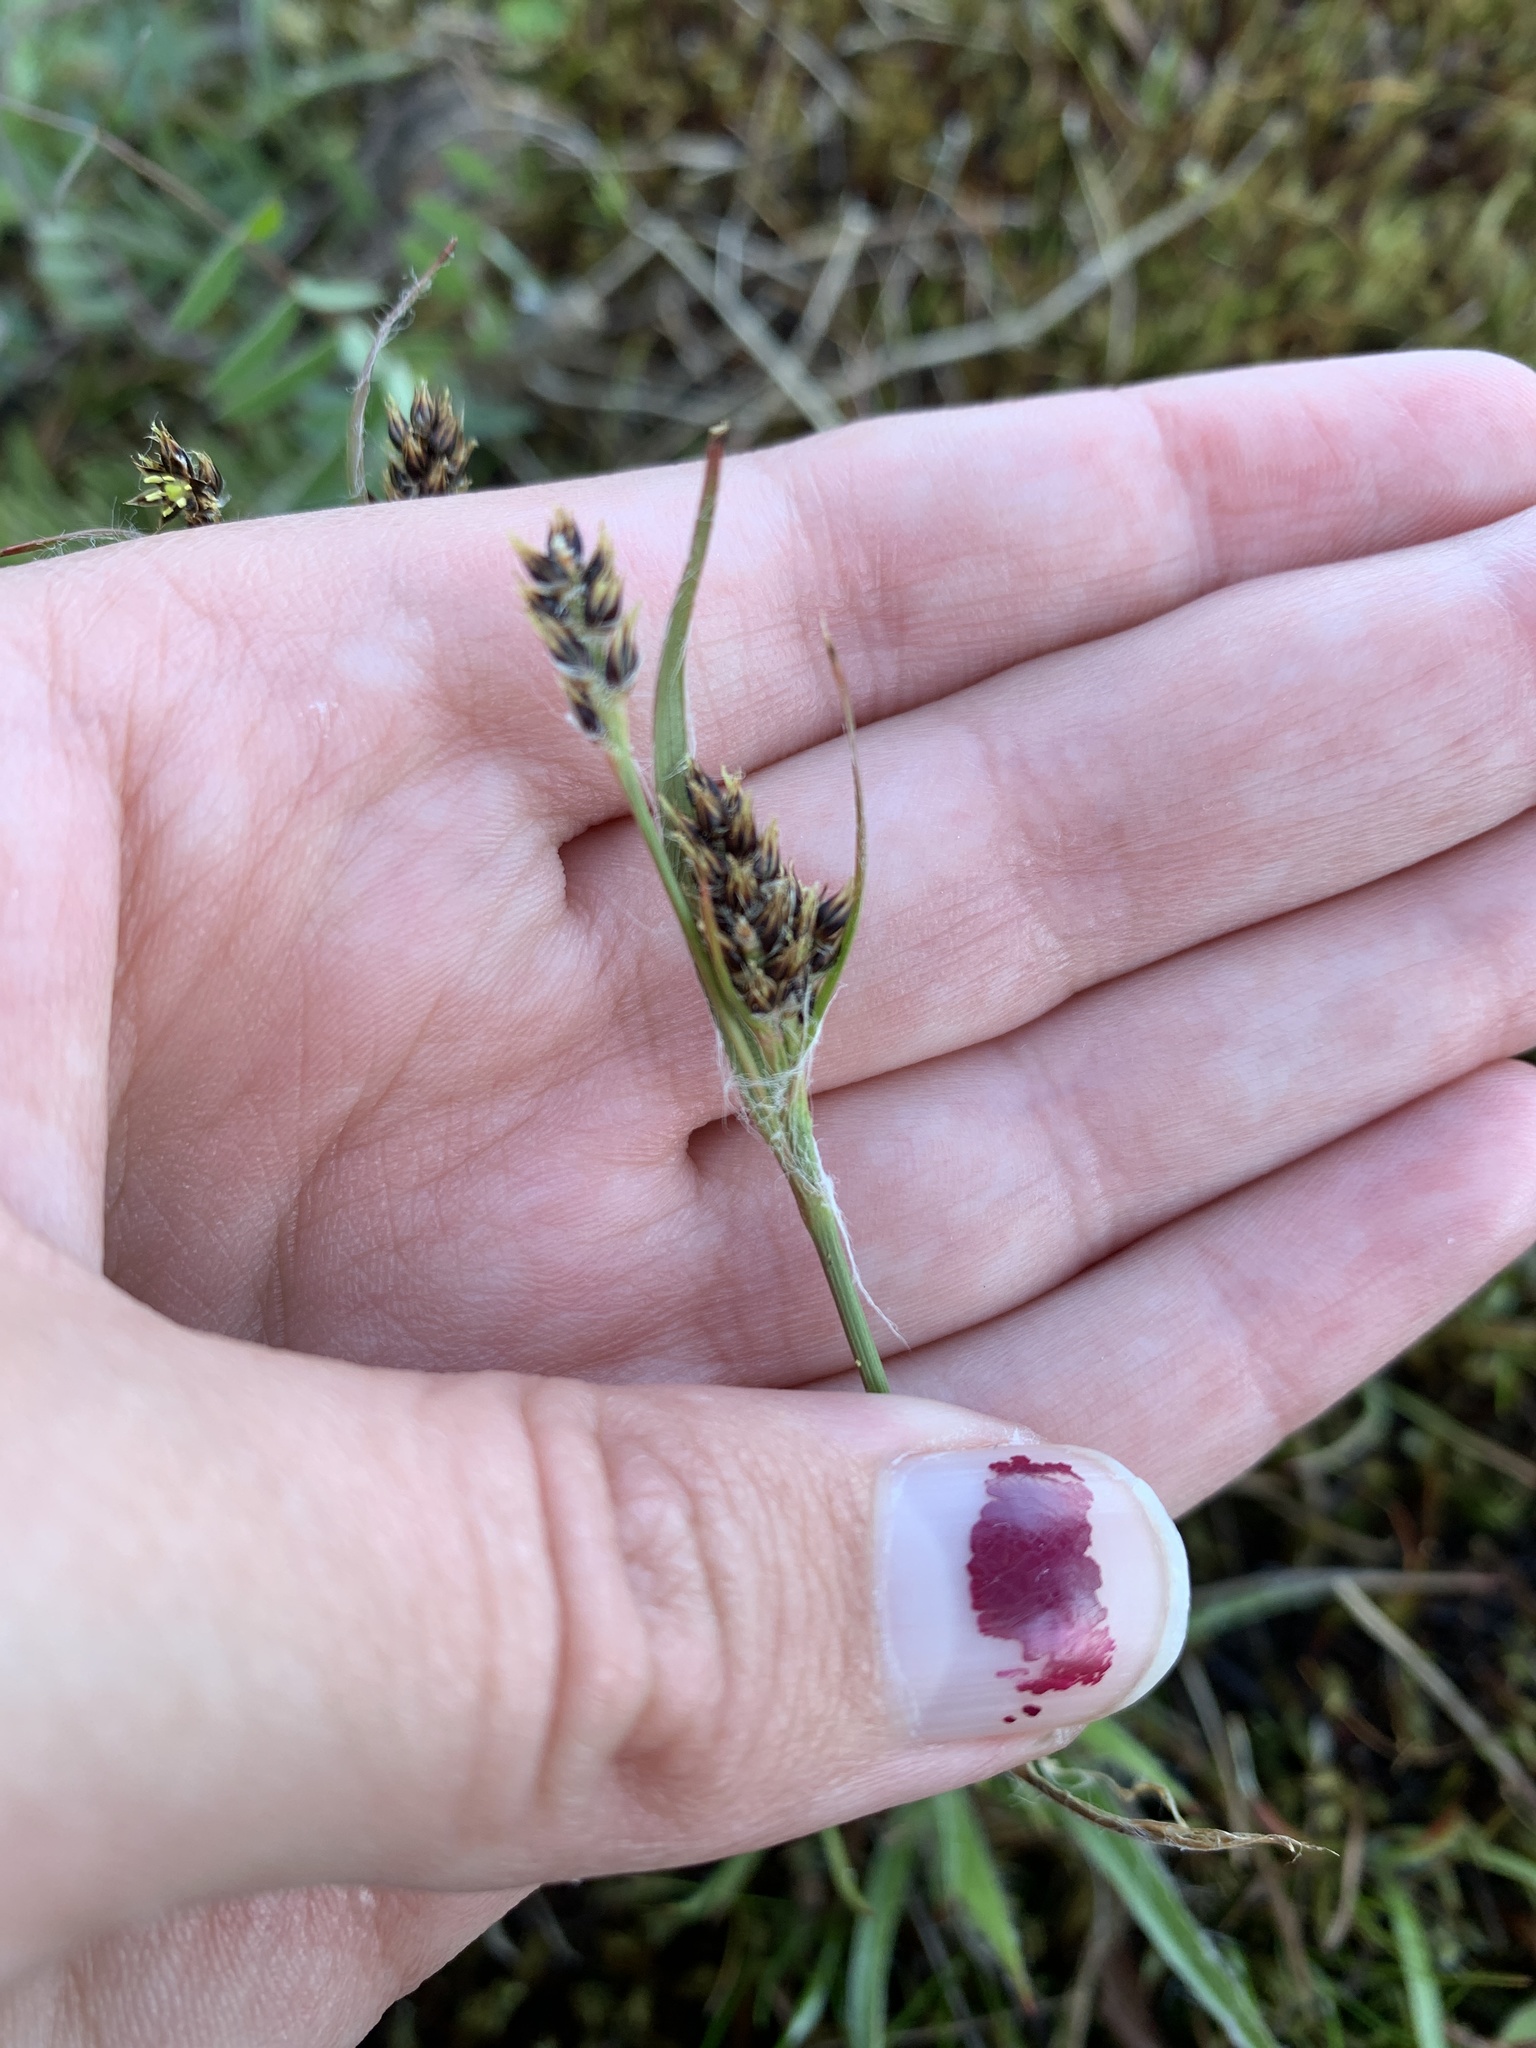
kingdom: Plantae
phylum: Tracheophyta
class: Liliopsida
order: Poales
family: Juncaceae
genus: Luzula
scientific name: Luzula macrantha
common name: Large-anthered woodrush
